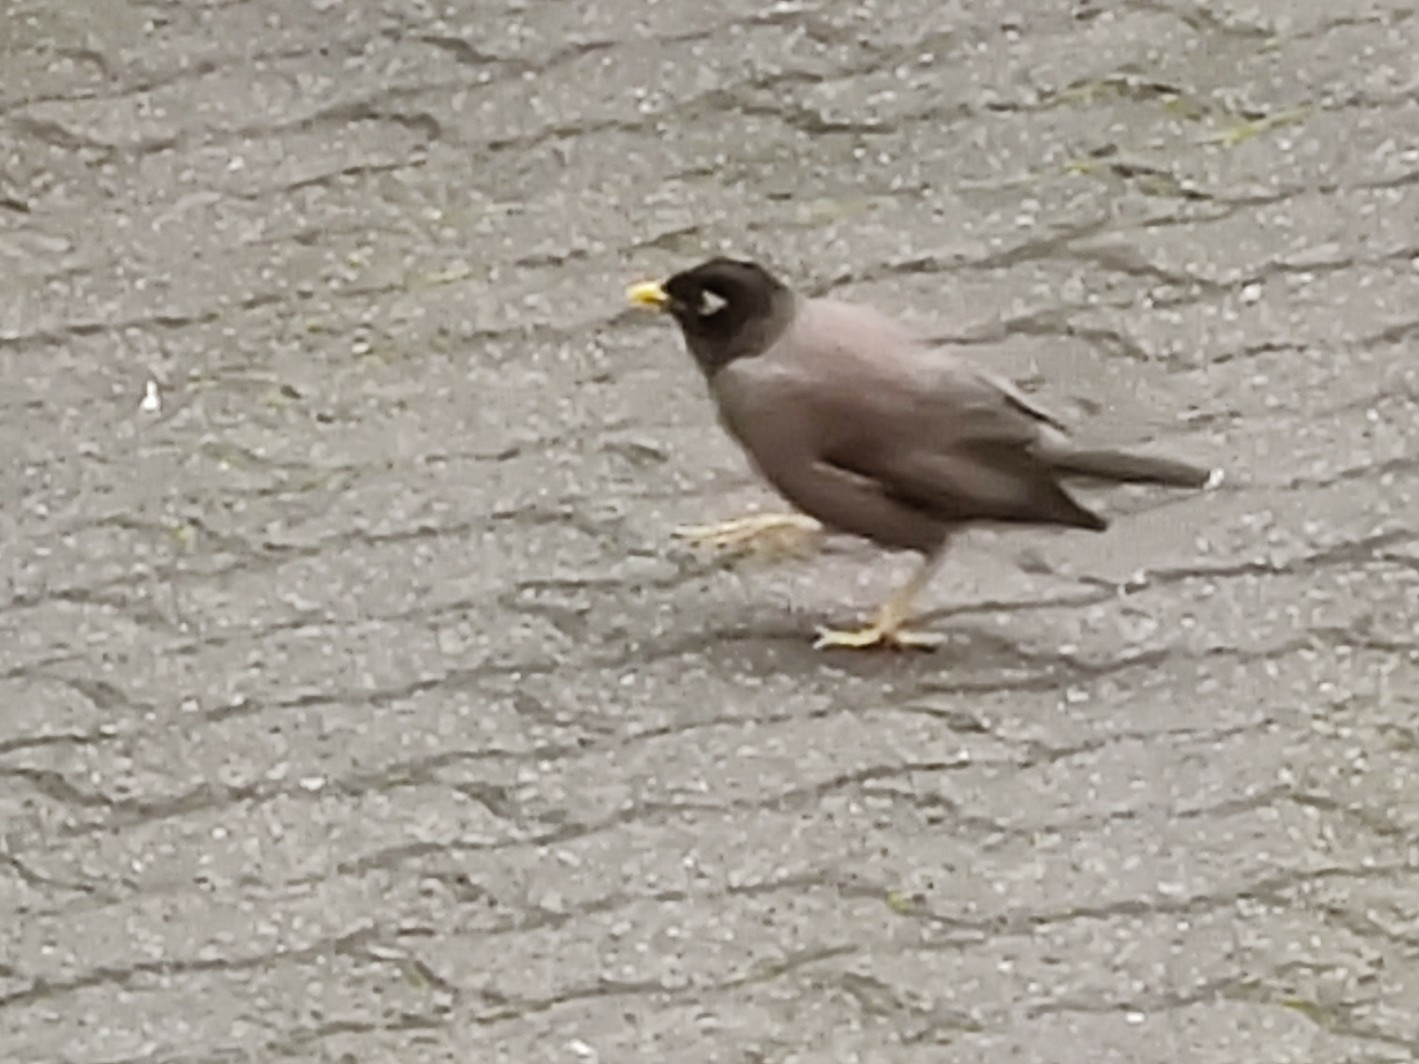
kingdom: Animalia
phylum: Chordata
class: Aves
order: Passeriformes
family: Sturnidae
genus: Acridotheres
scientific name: Acridotheres tristis
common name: Common myna
